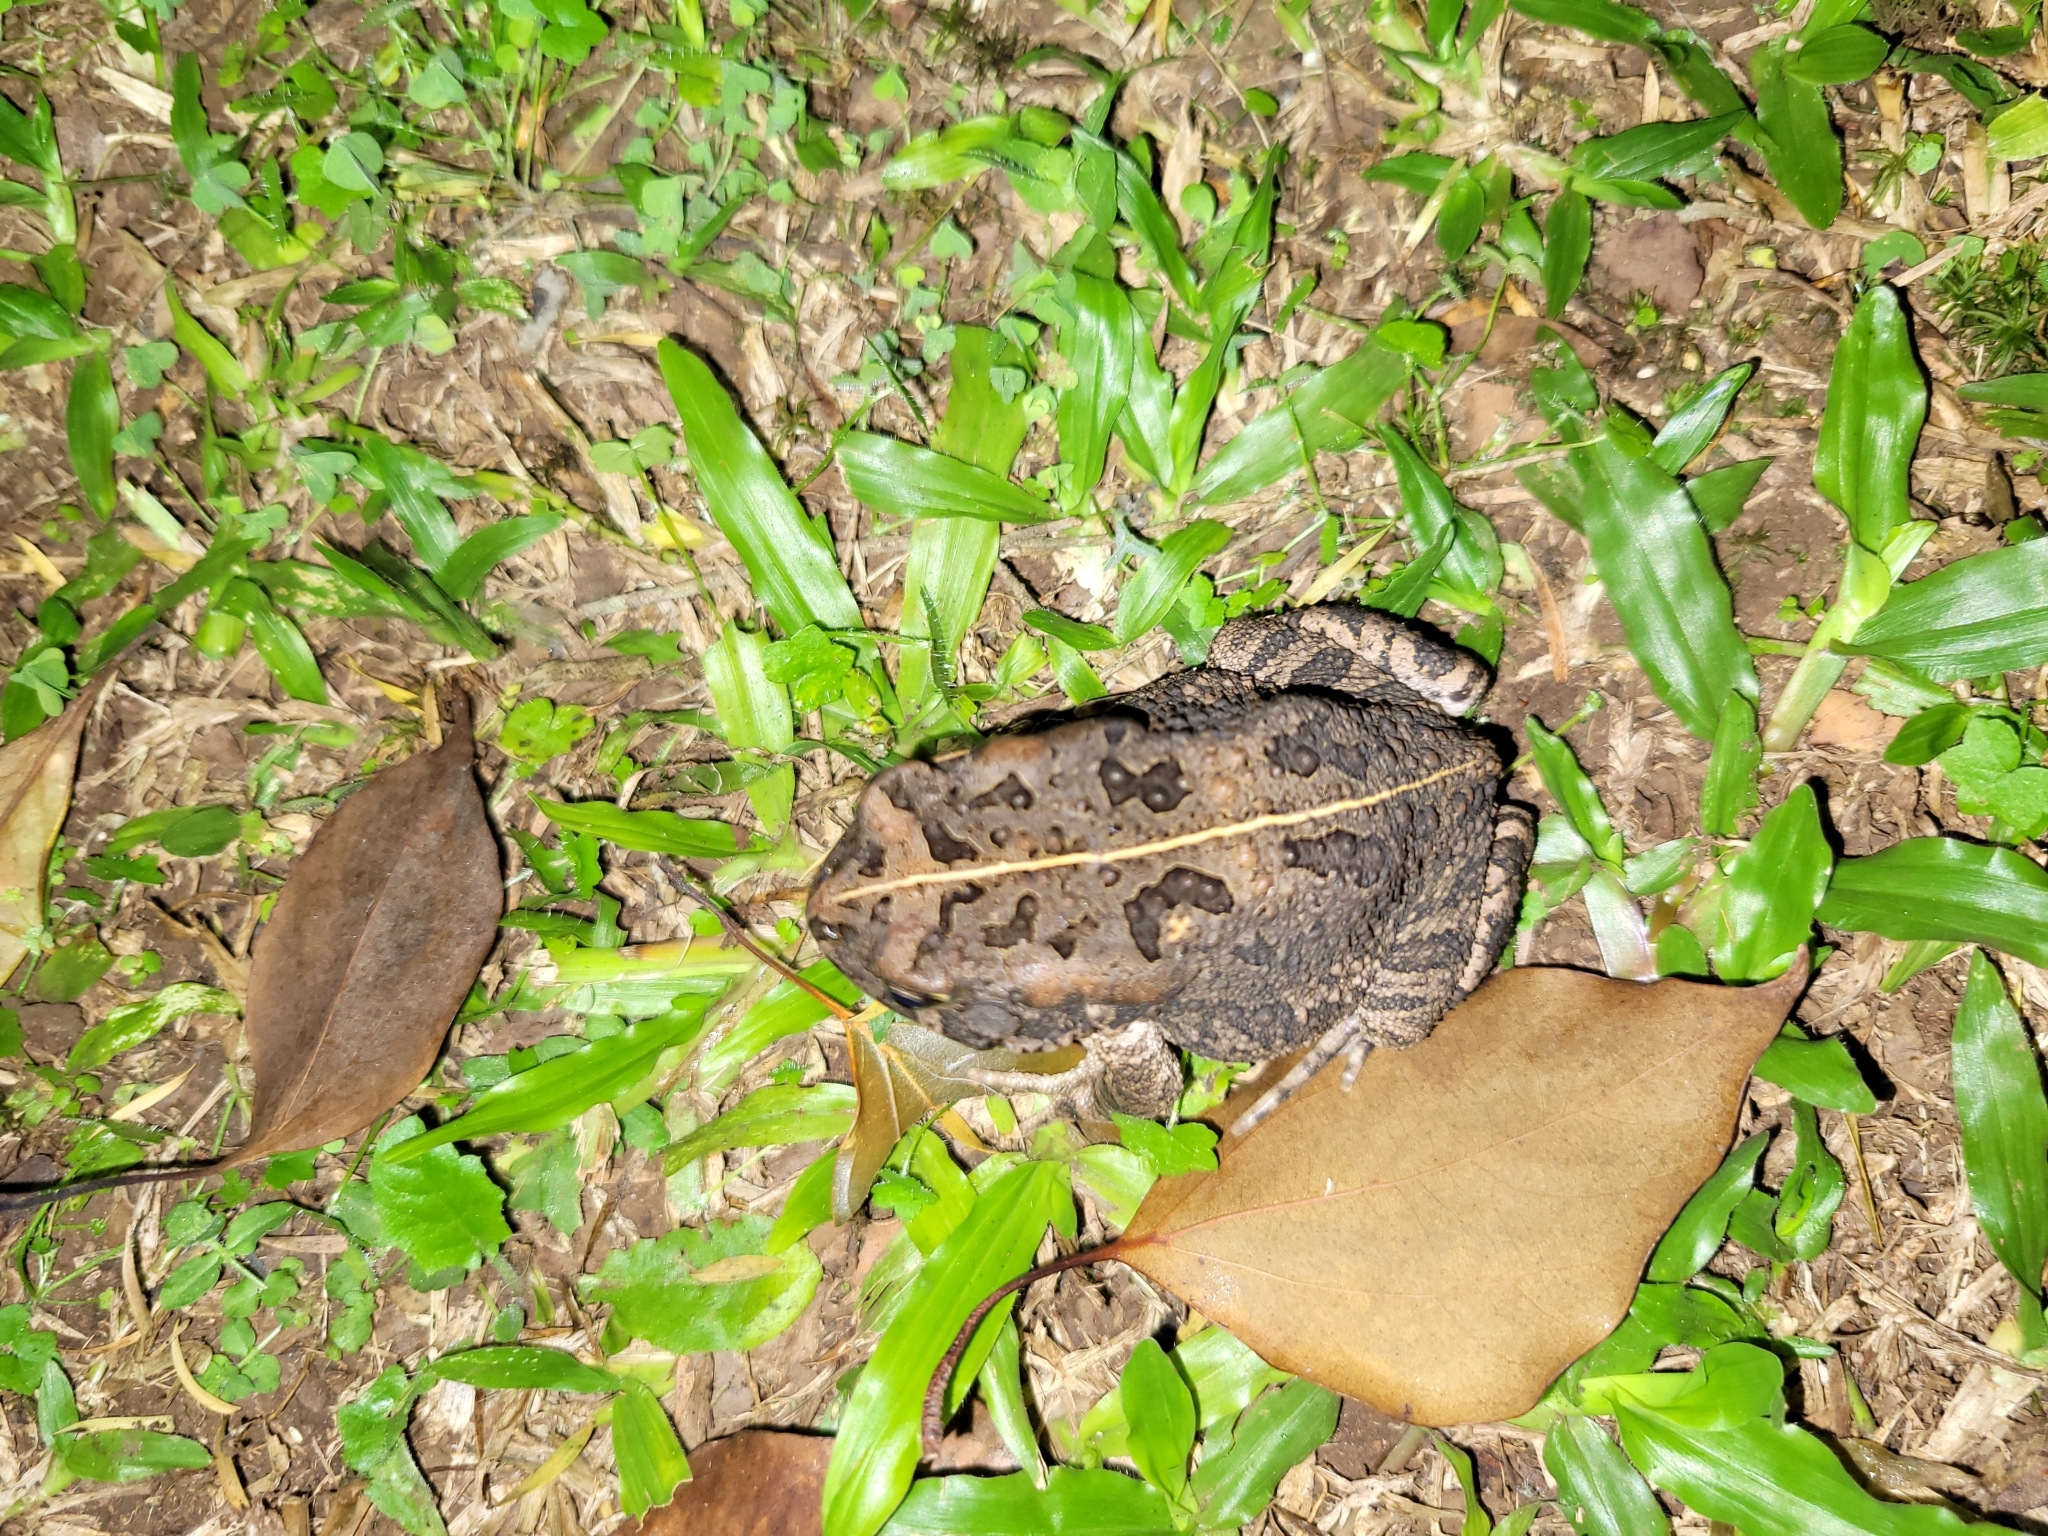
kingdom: Animalia
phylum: Chordata
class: Amphibia
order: Anura
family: Bufonidae
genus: Sclerophrys
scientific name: Sclerophrys gutturalis
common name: African common toad
